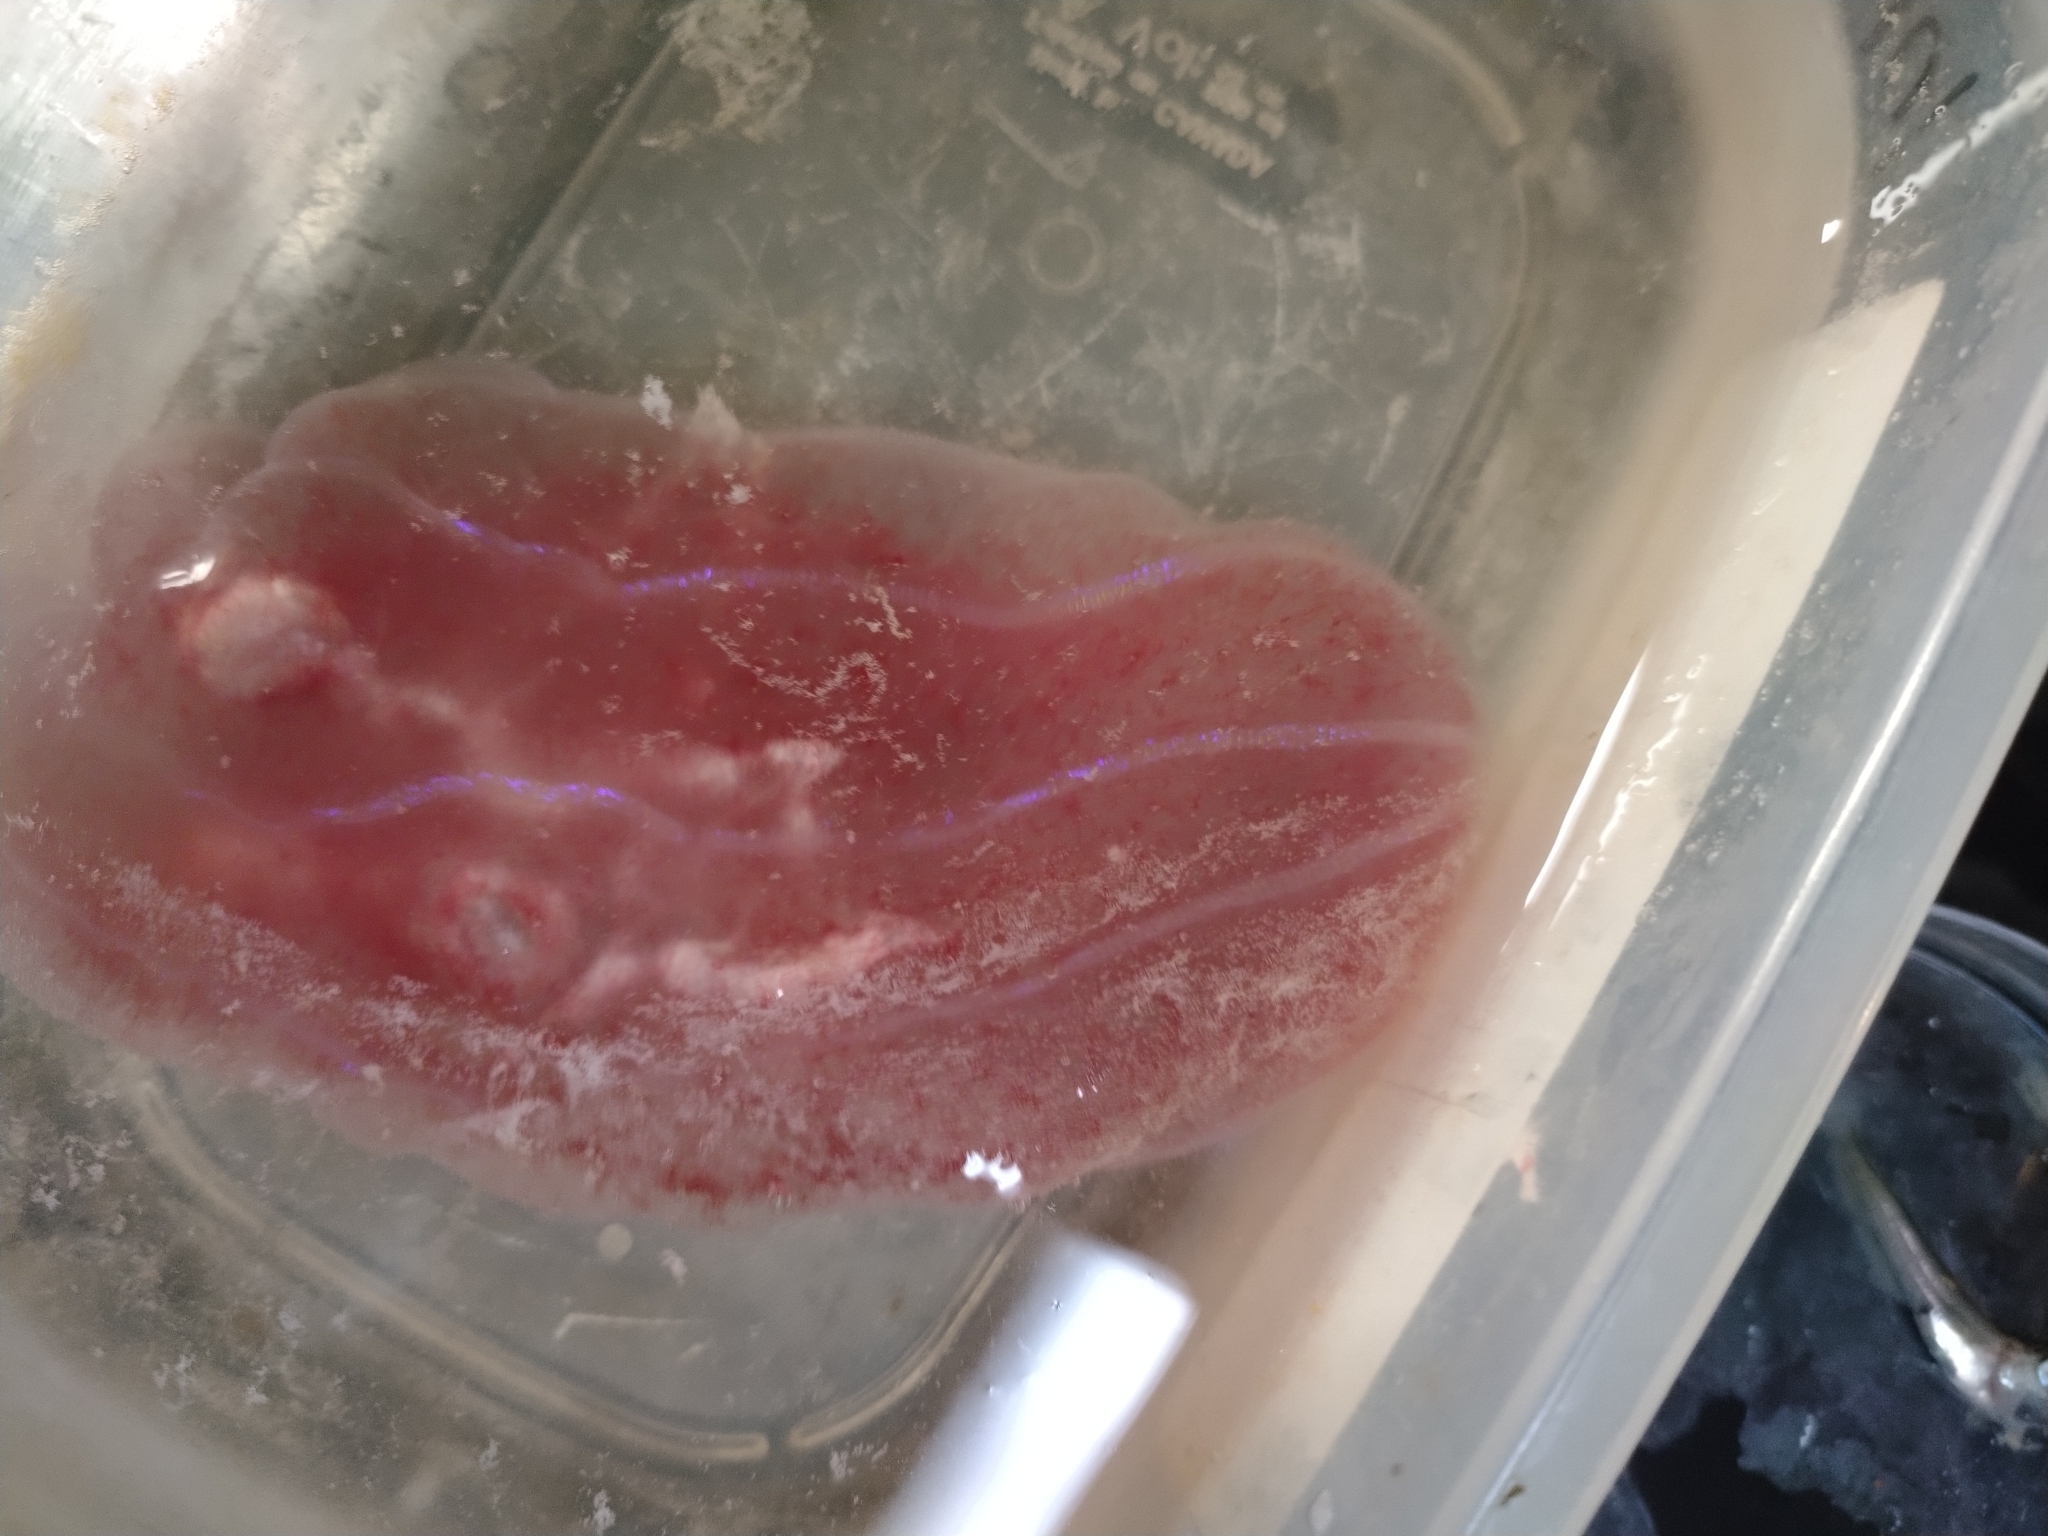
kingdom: Animalia
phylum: Ctenophora
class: Nuda
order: Beroida
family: Beroidae
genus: Beroe
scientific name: Beroe abyssicola
